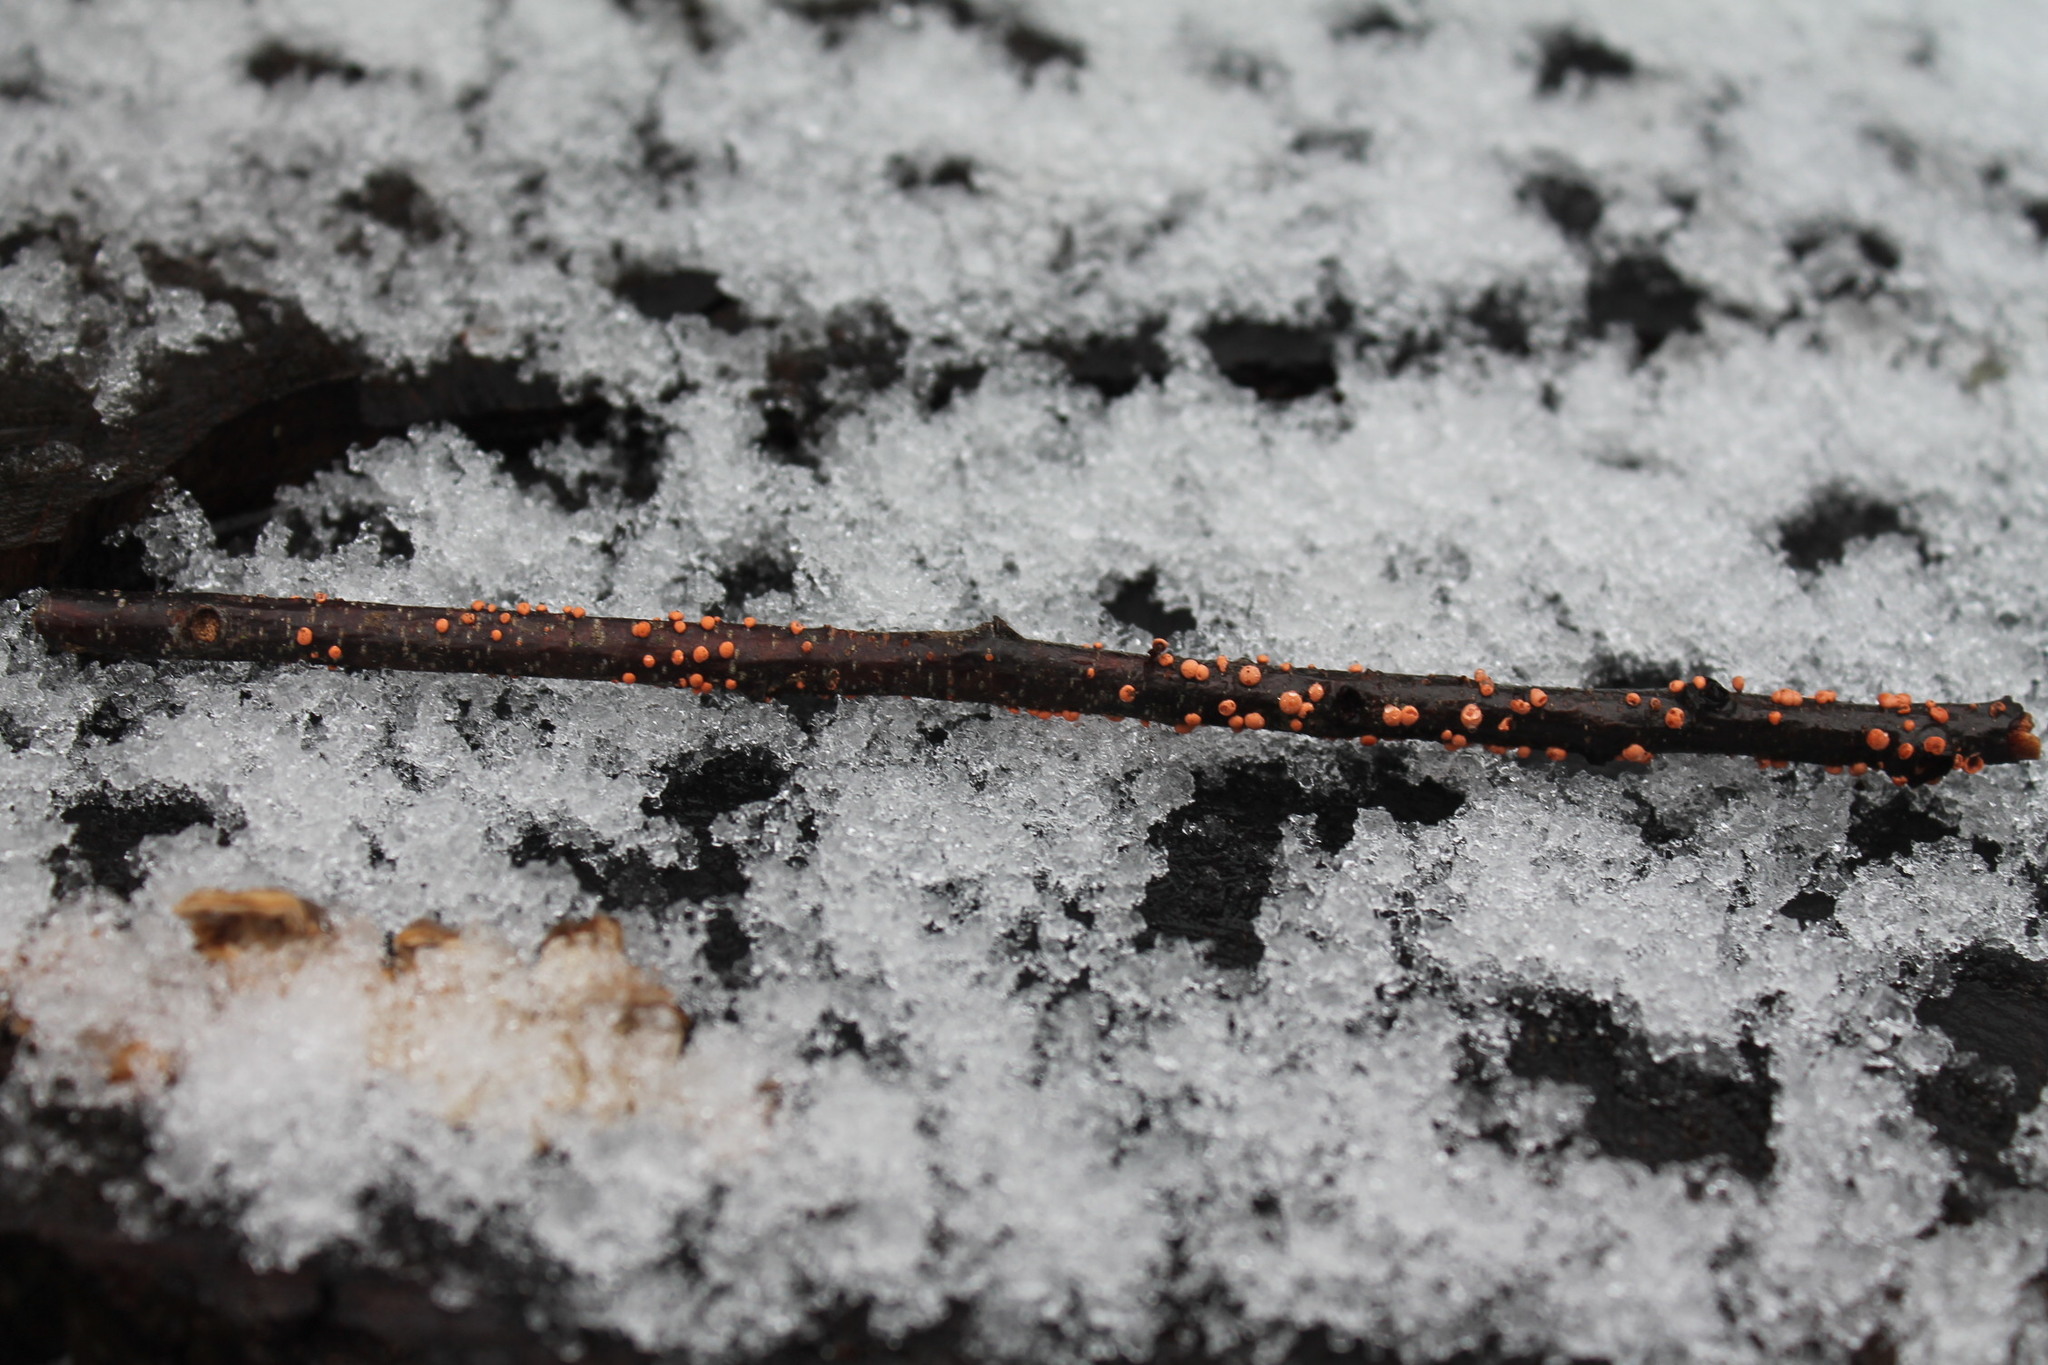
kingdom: Fungi
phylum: Ascomycota
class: Sordariomycetes
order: Hypocreales
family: Nectriaceae
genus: Nectria
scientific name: Nectria cinnabarina
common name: Coral spot
